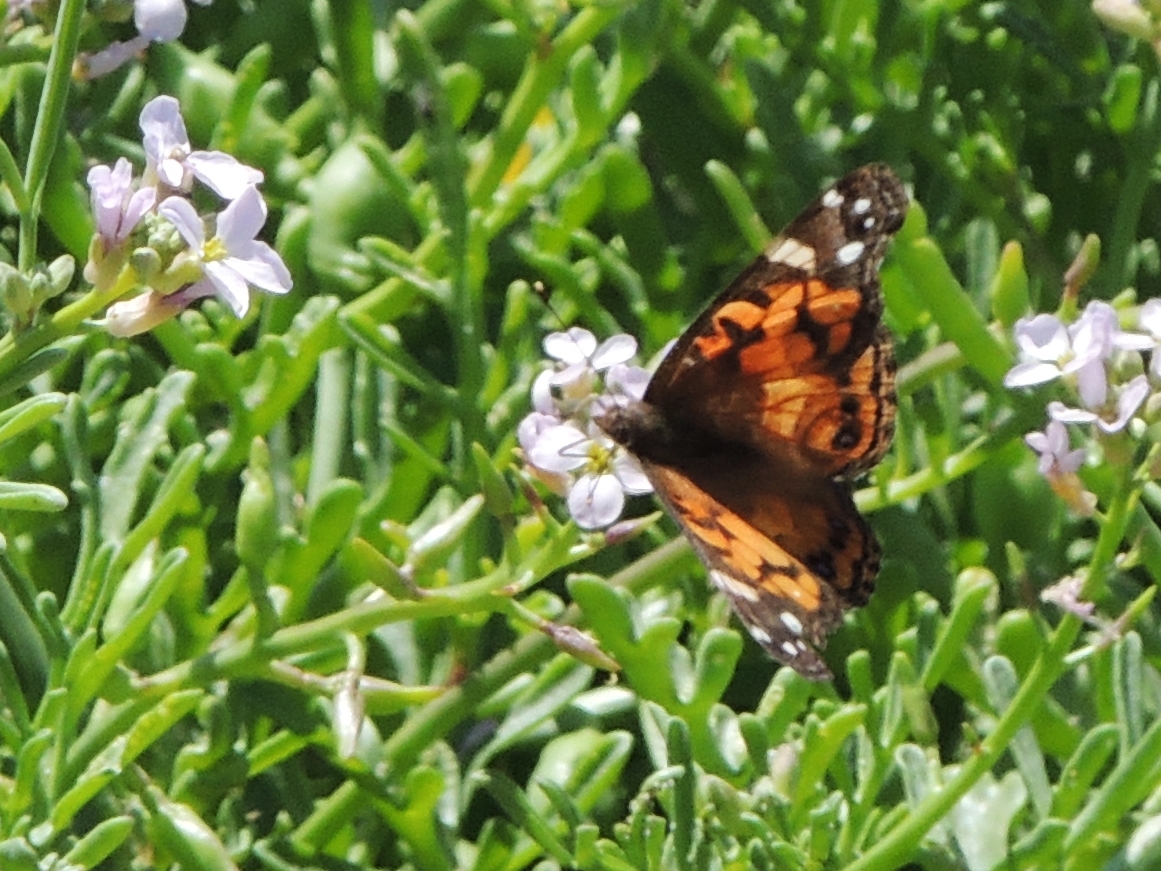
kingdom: Animalia
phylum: Arthropoda
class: Insecta
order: Lepidoptera
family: Nymphalidae
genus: Vanessa
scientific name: Vanessa virginiensis
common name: American lady
